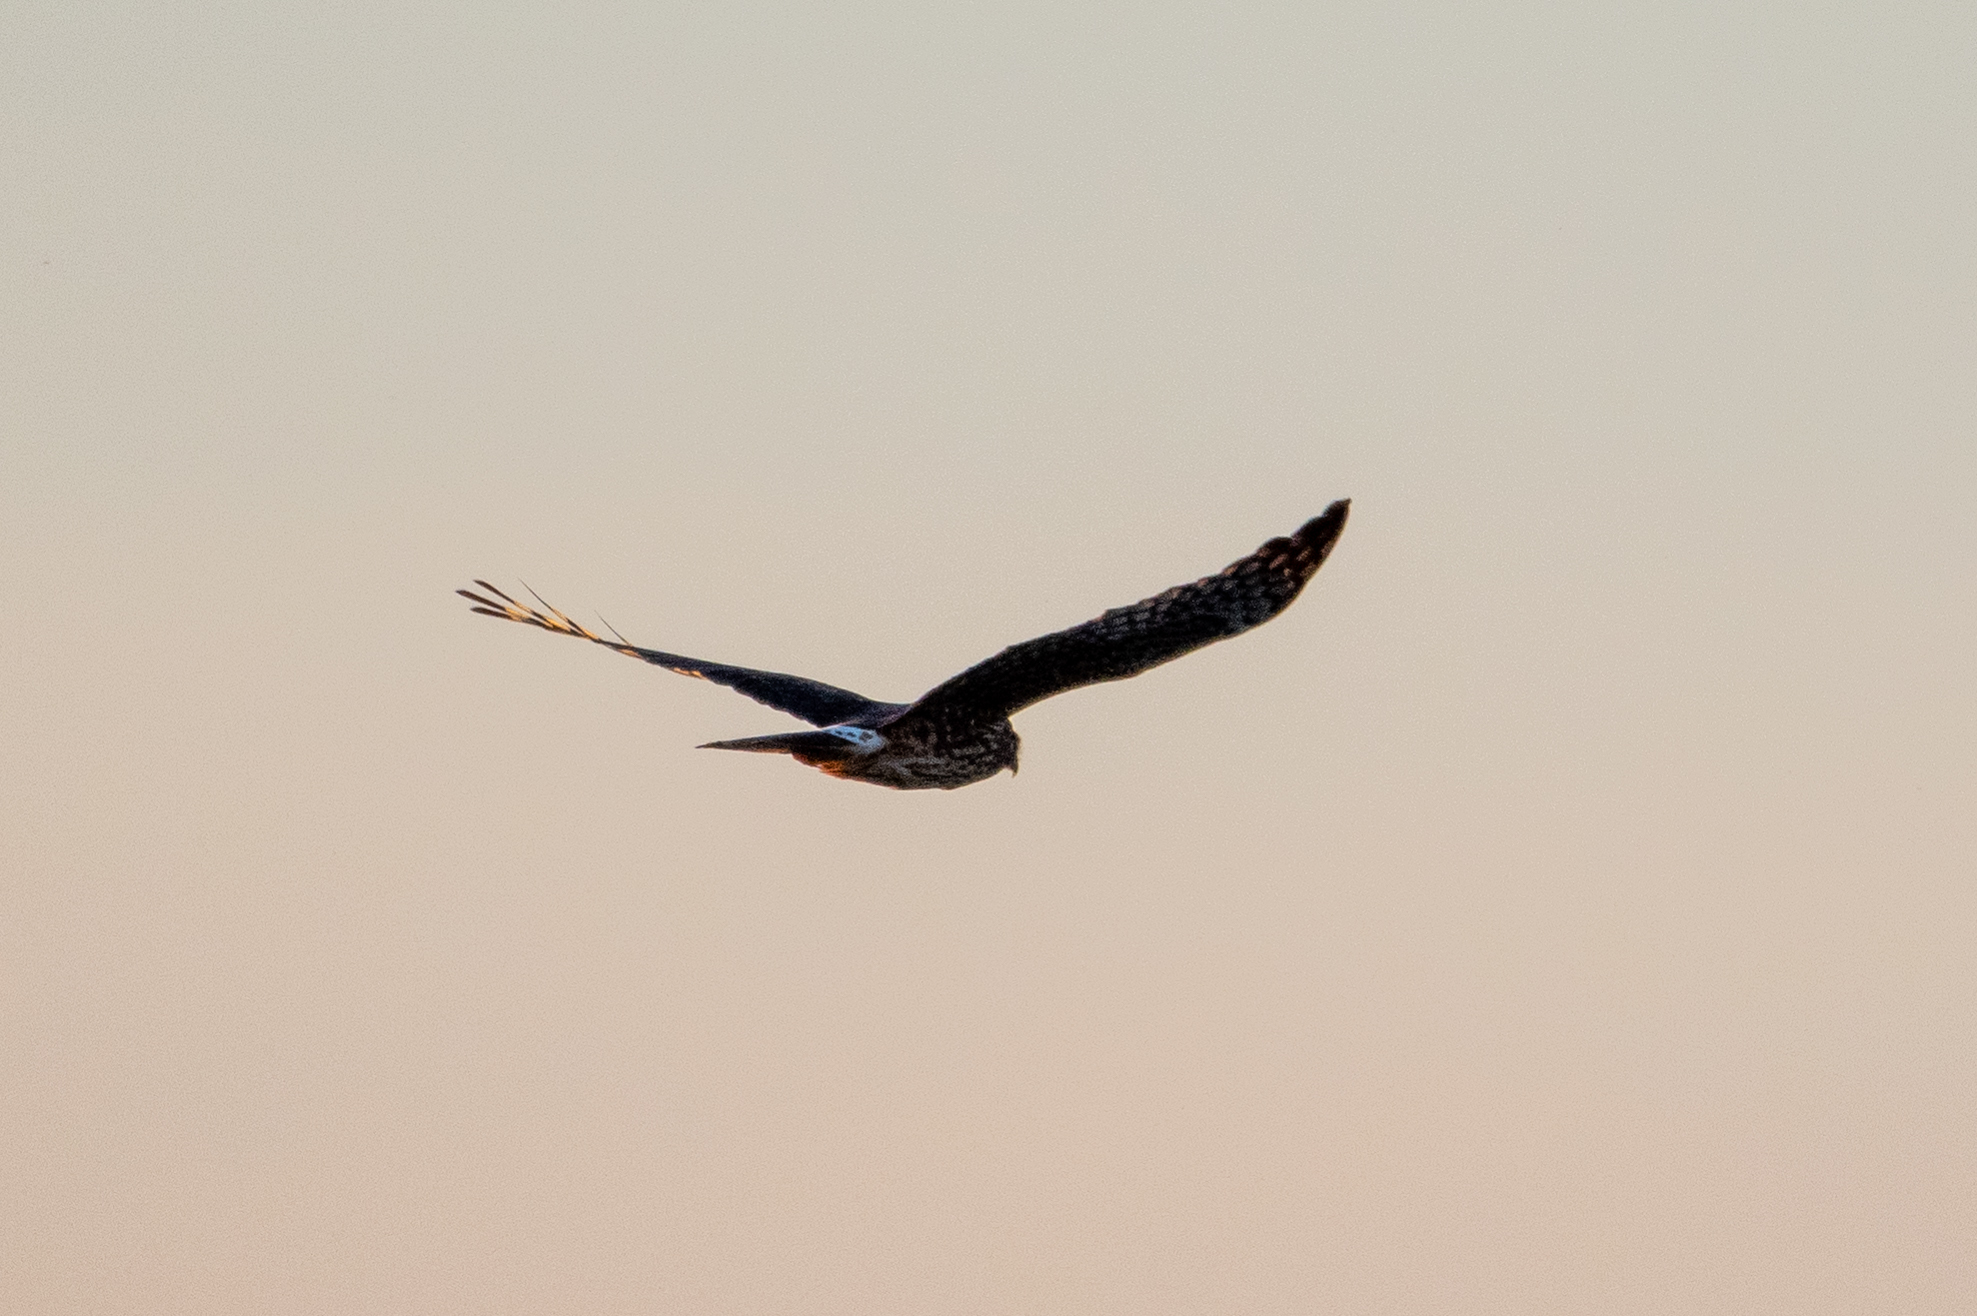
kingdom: Animalia
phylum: Chordata
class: Aves
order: Accipitriformes
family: Accipitridae
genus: Circus
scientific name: Circus cyaneus
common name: Hen harrier
